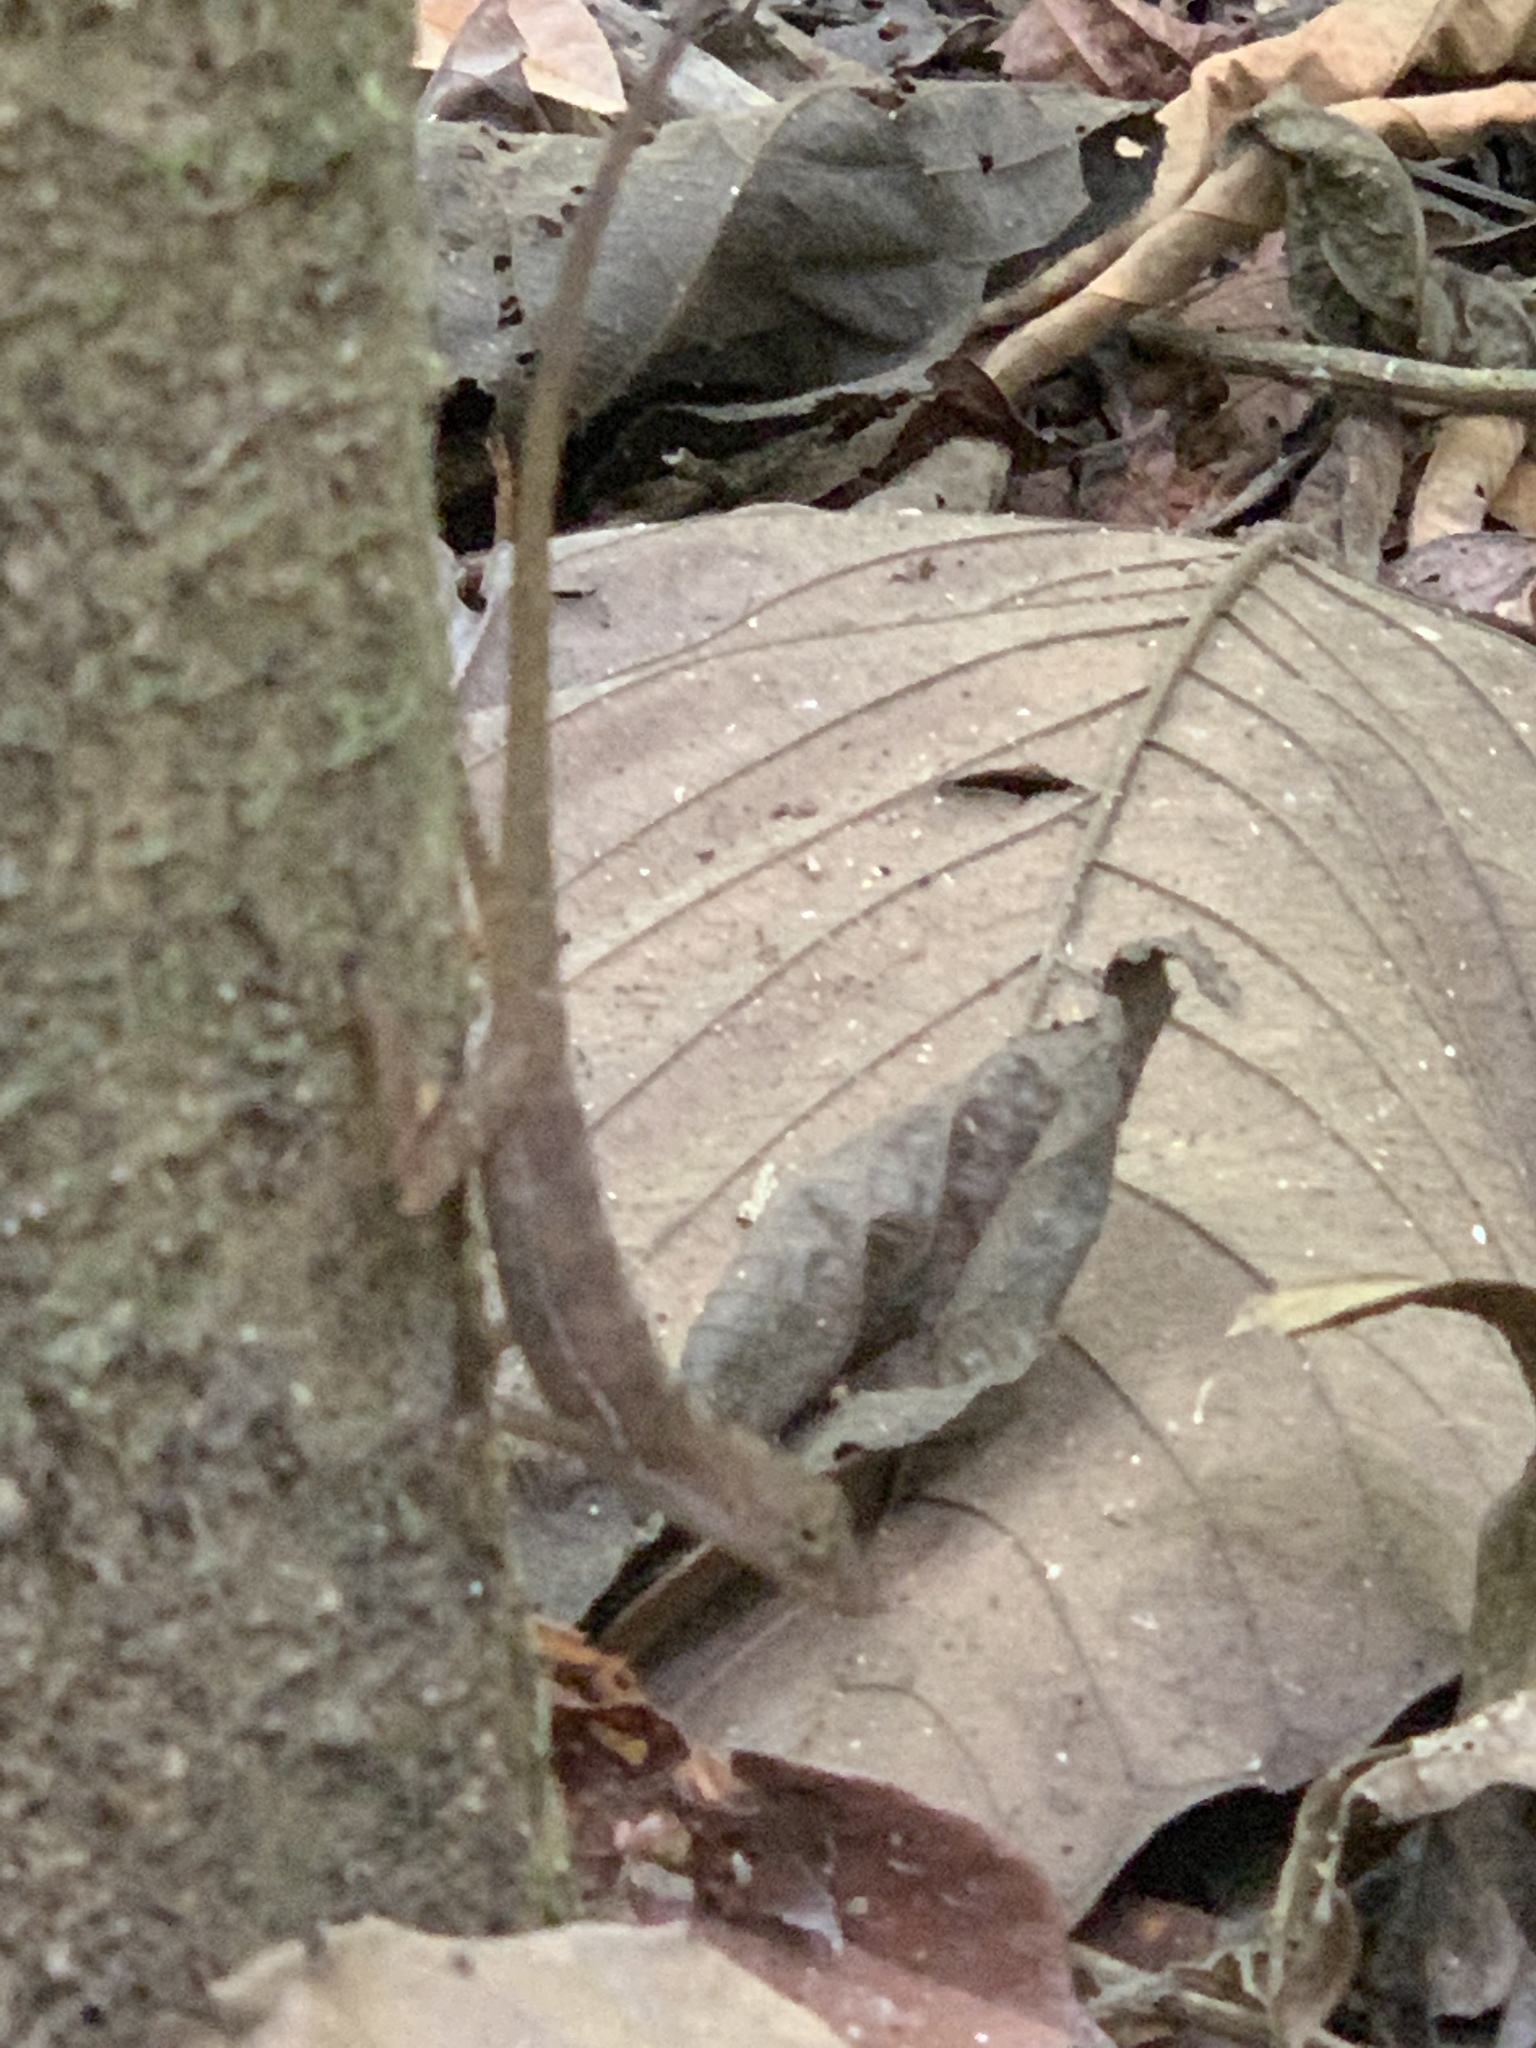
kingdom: Animalia
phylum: Chordata
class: Squamata
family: Dactyloidae
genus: Anolis
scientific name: Anolis osa
